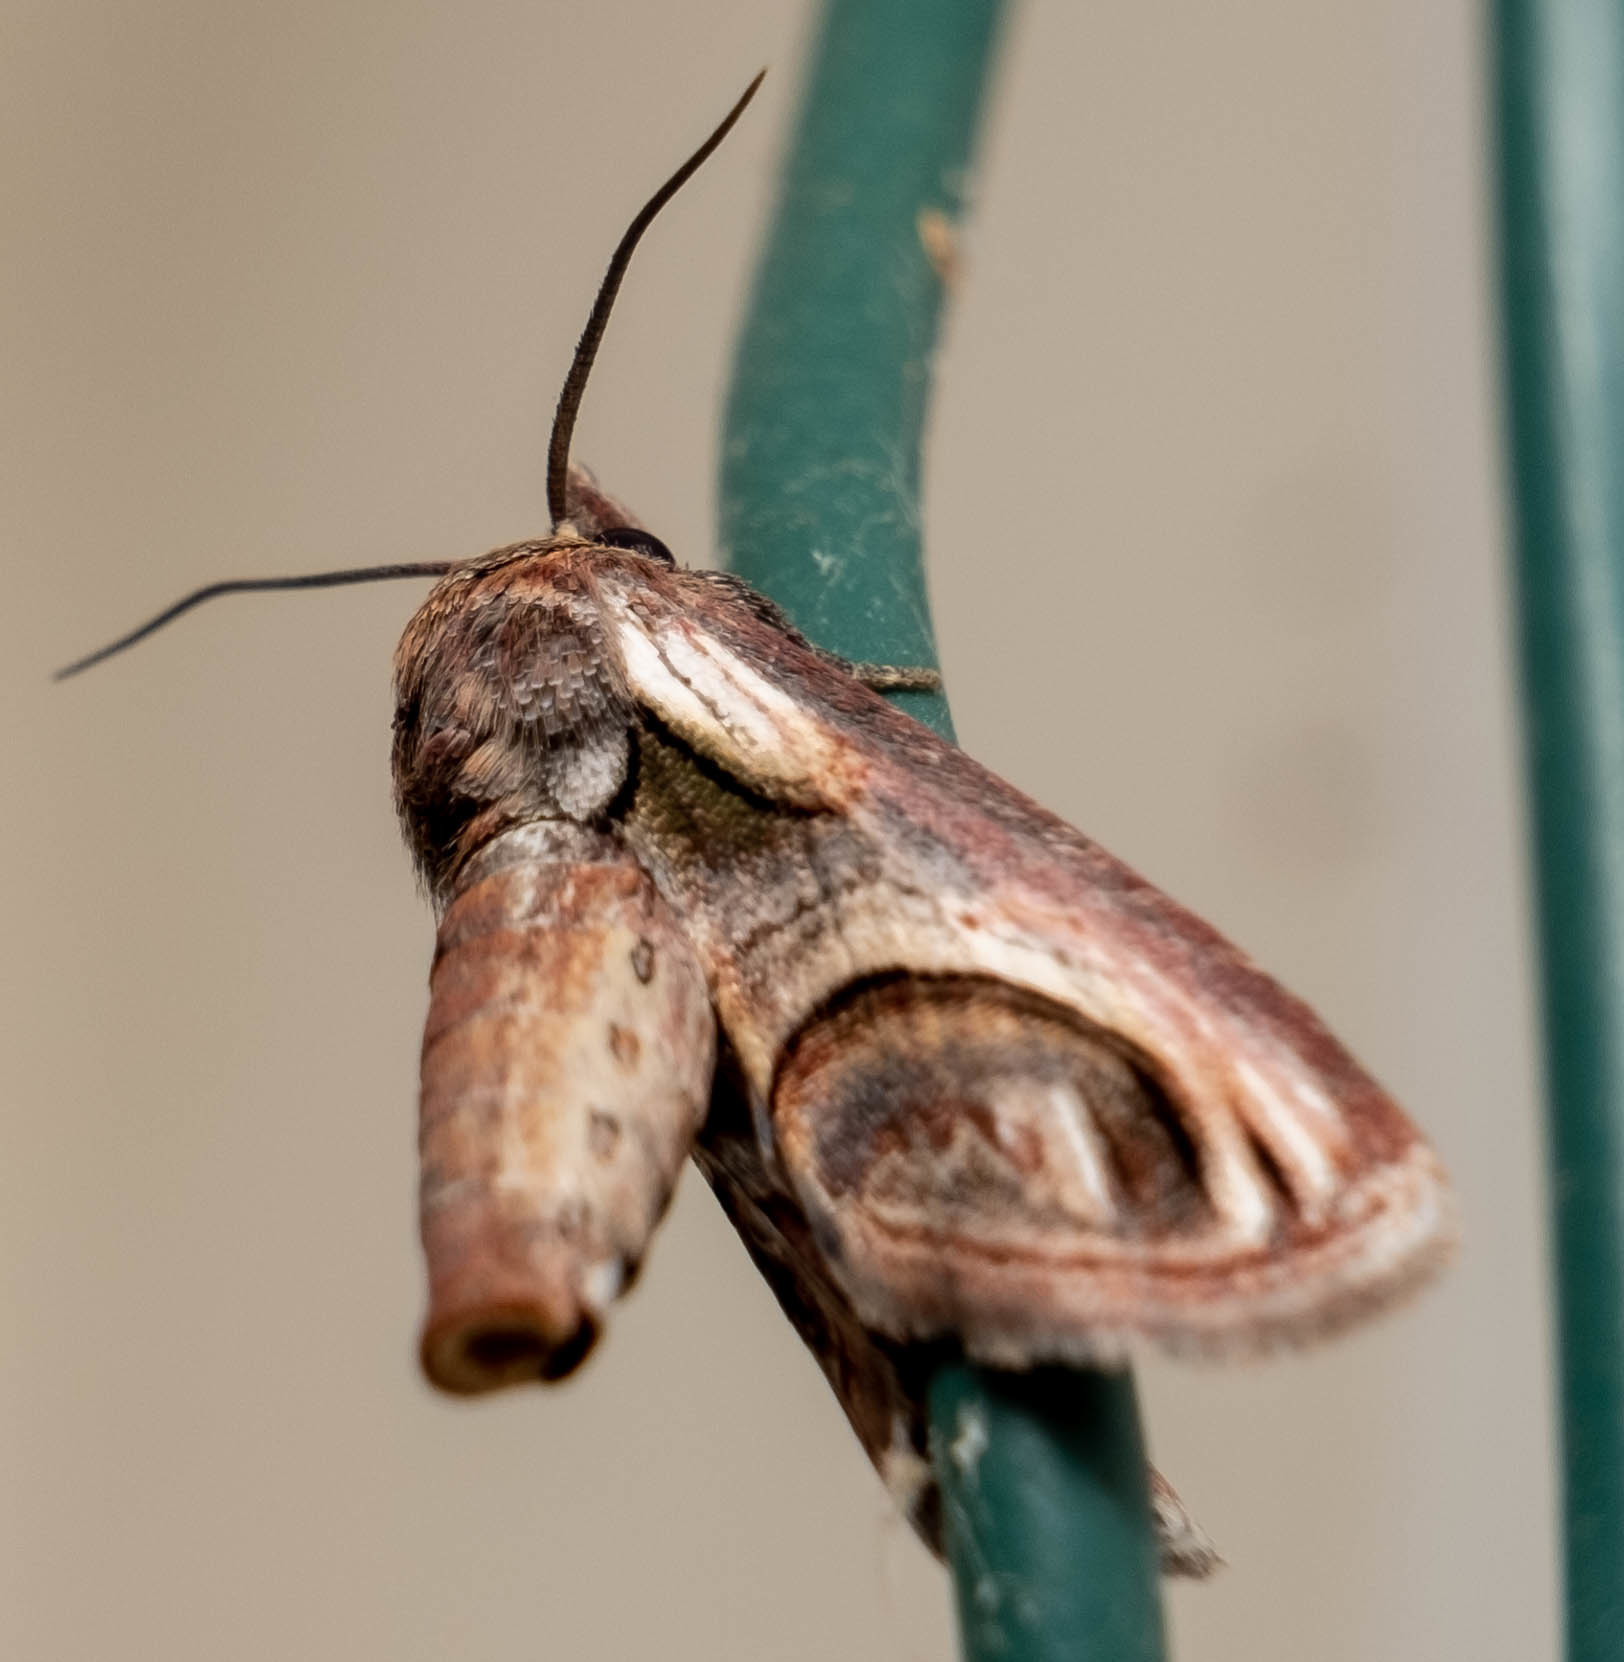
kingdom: Animalia
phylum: Arthropoda
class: Insecta
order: Lepidoptera
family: Euteliidae
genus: Paectes
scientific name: Paectes oculatrix
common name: Eyed paectes moth
